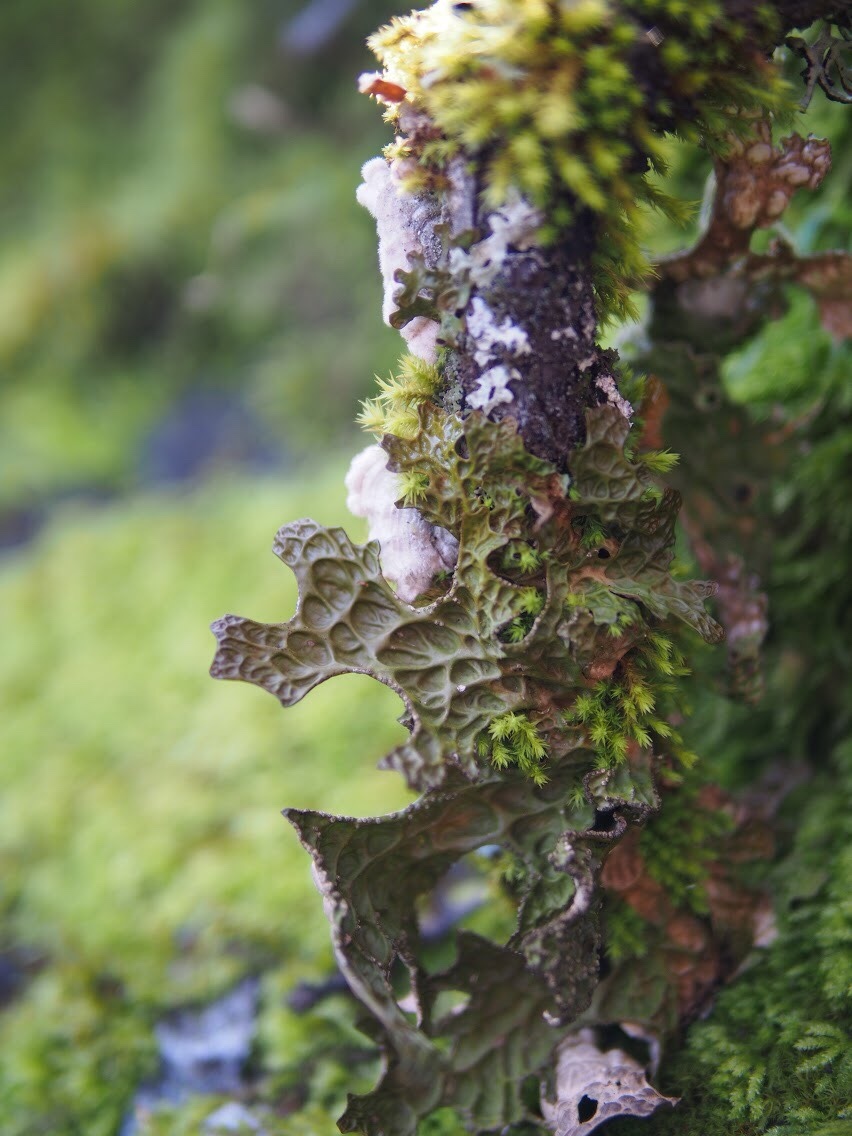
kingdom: Fungi
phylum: Ascomycota
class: Lecanoromycetes
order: Peltigerales
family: Lobariaceae
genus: Lobaria
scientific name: Lobaria pulmonaria
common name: Lungwort
